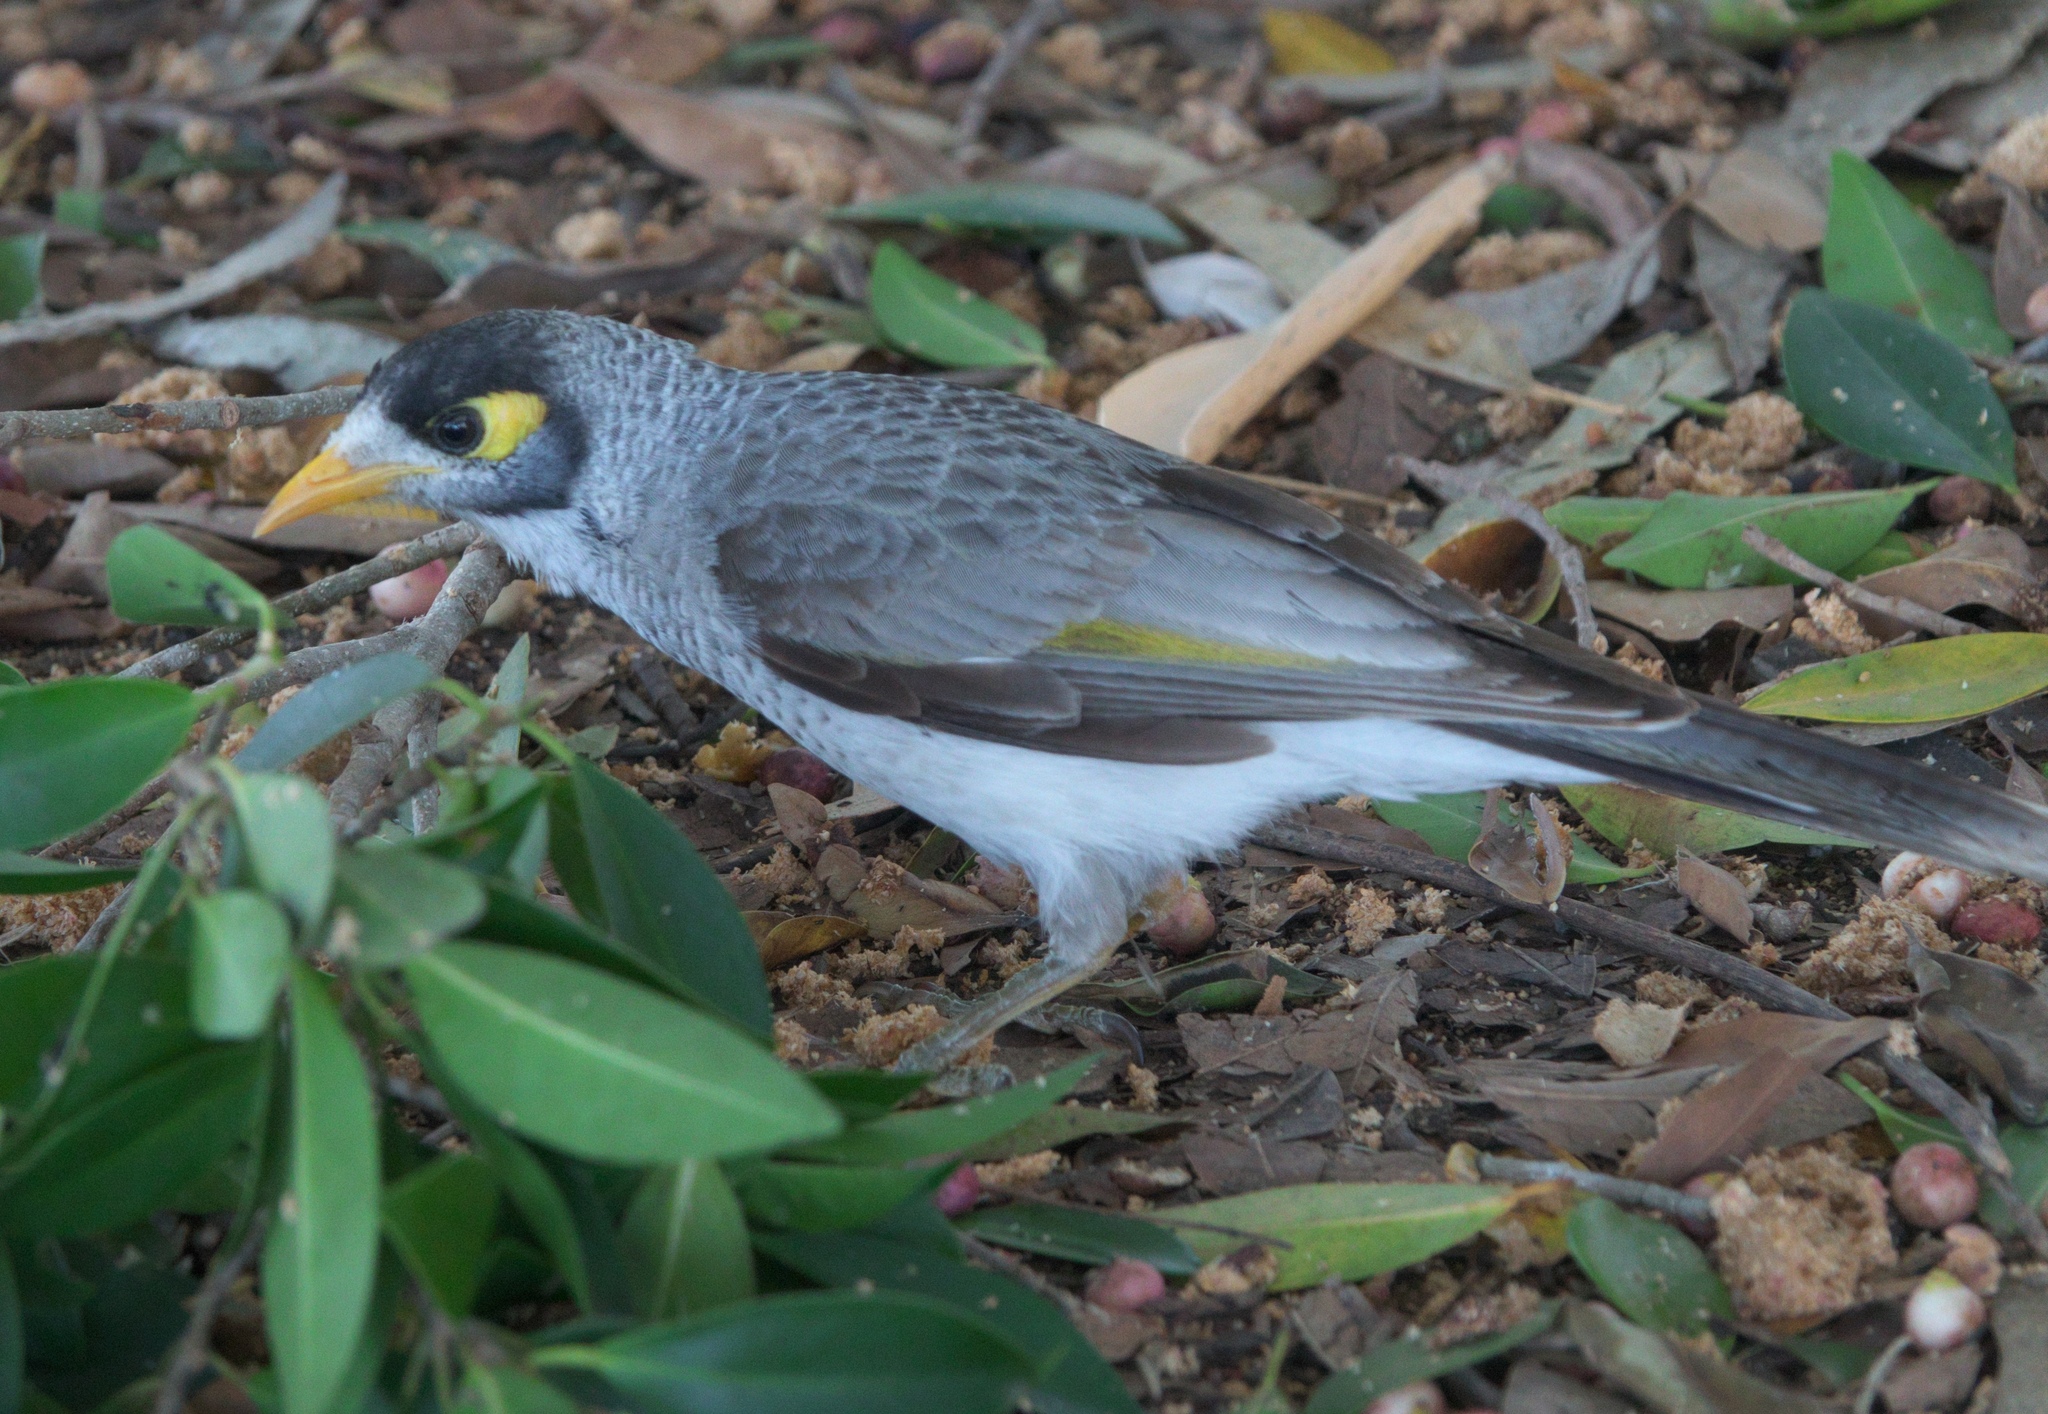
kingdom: Animalia
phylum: Chordata
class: Aves
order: Passeriformes
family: Meliphagidae
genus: Manorina
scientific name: Manorina melanocephala
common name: Noisy miner
